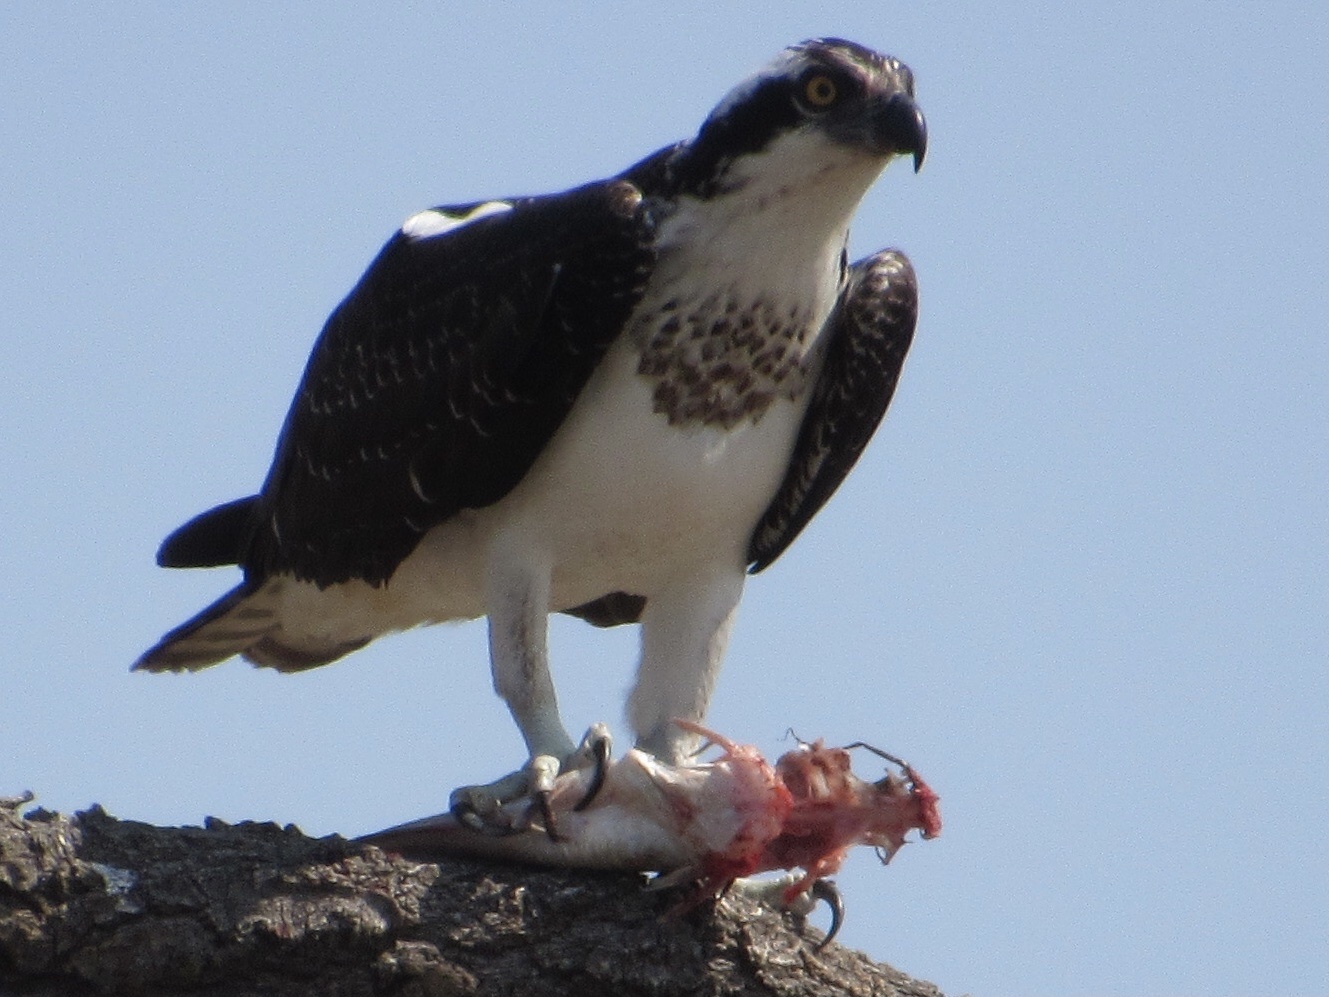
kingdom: Animalia
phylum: Chordata
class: Aves
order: Accipitriformes
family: Pandionidae
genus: Pandion
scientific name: Pandion haliaetus
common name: Osprey
